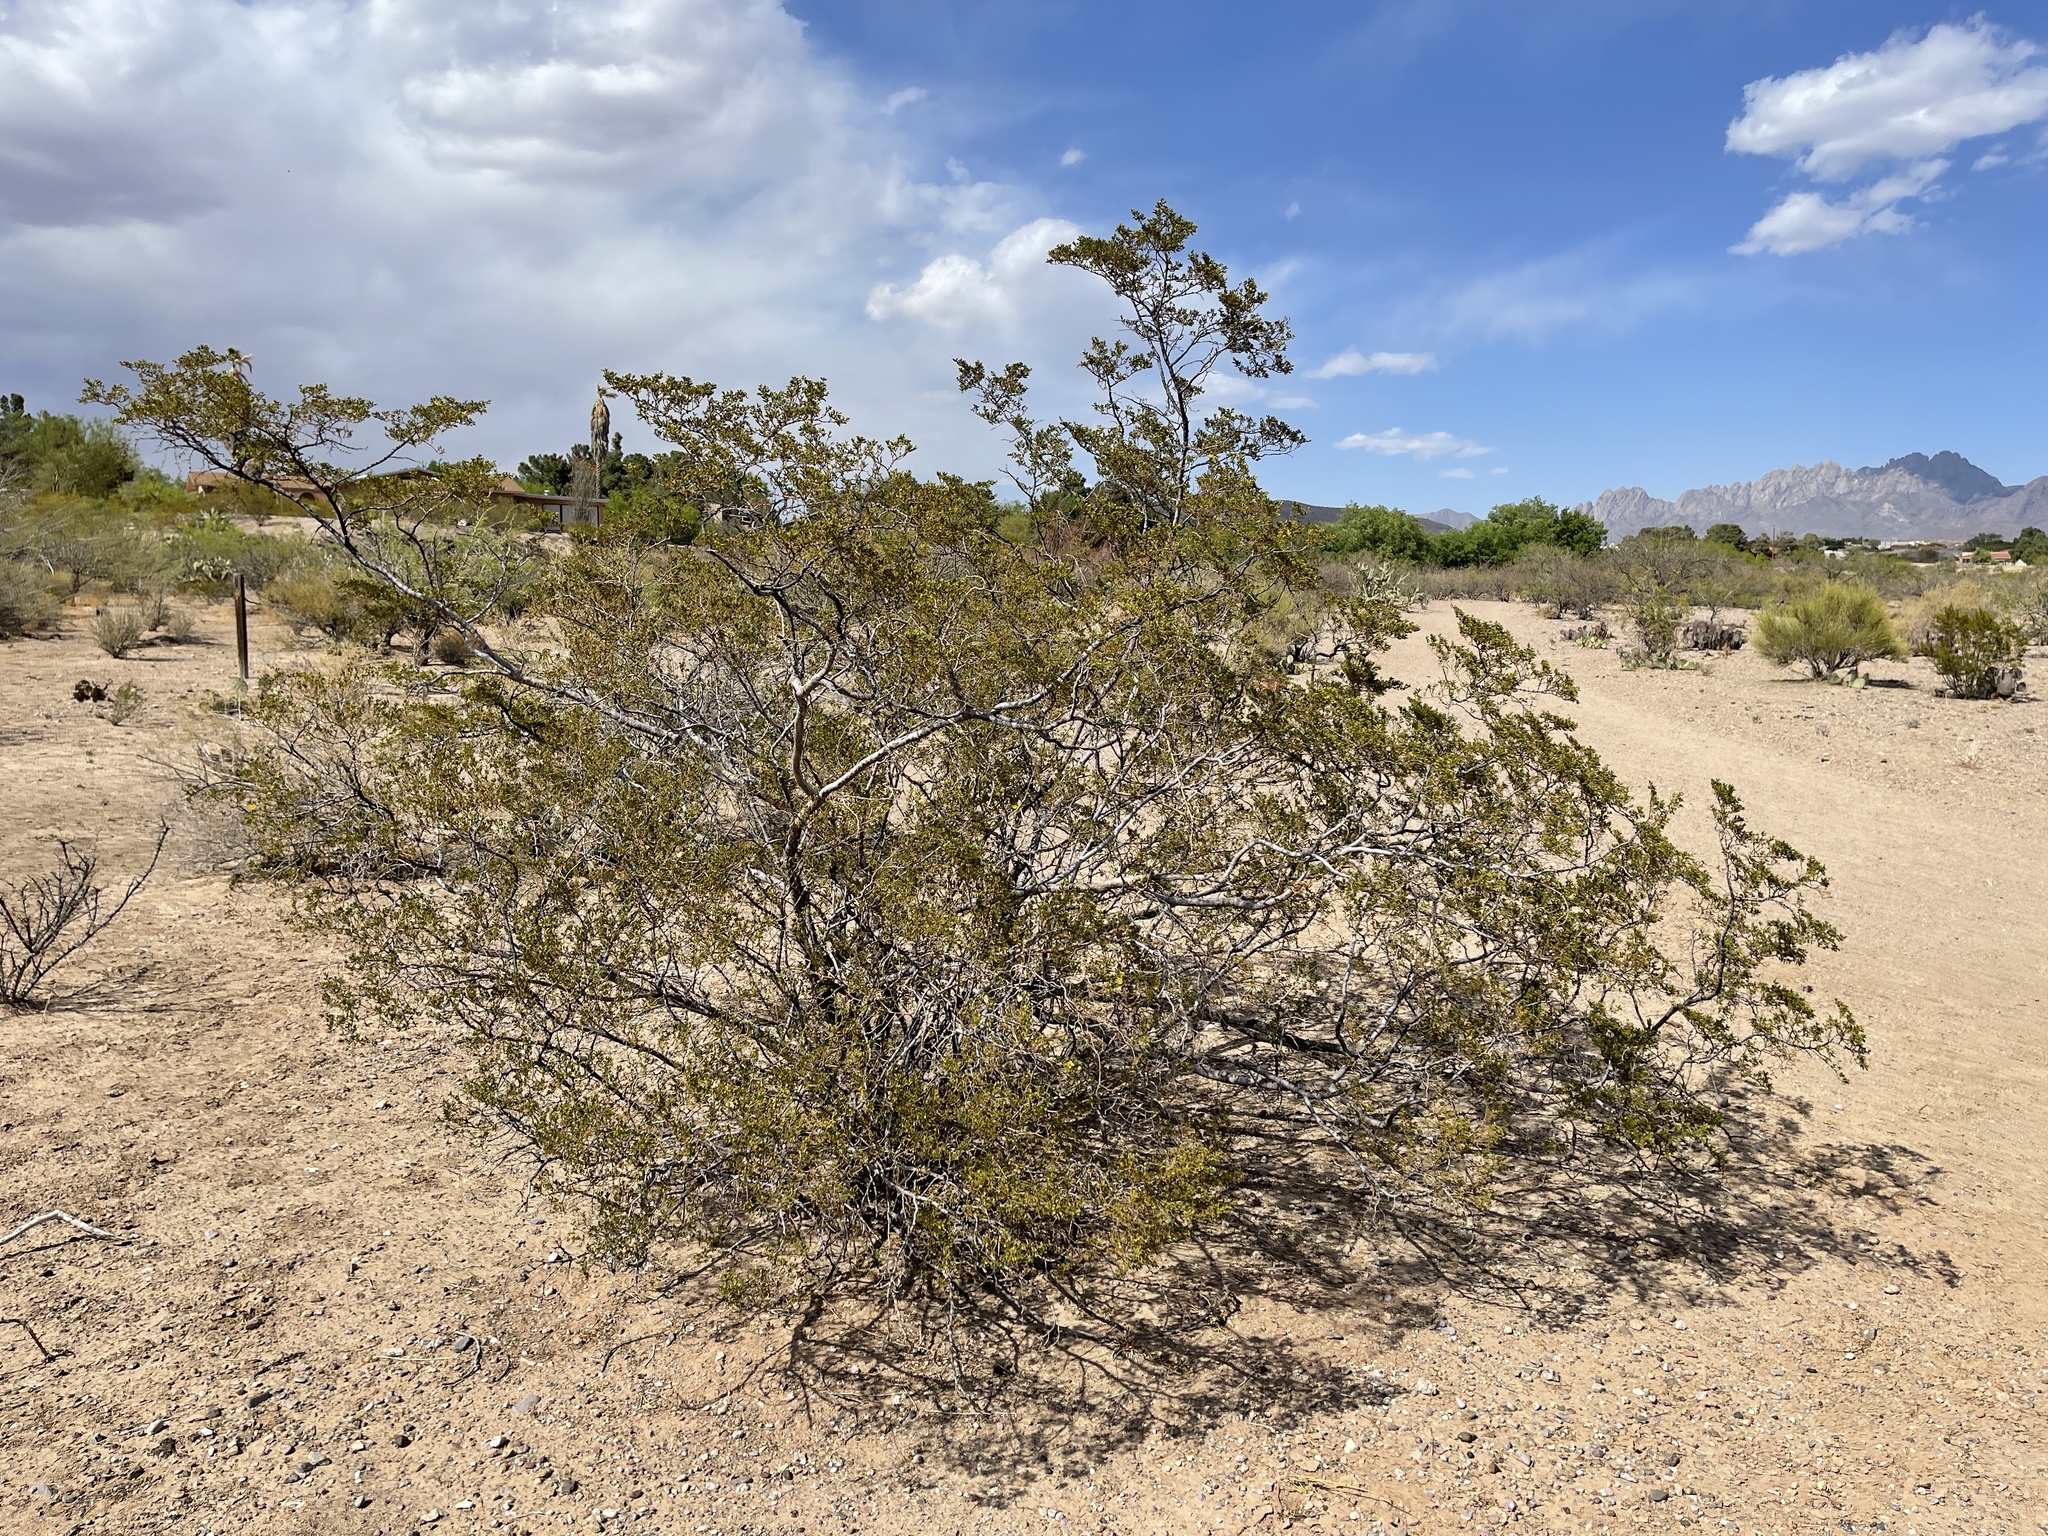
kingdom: Plantae
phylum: Tracheophyta
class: Magnoliopsida
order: Zygophyllales
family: Zygophyllaceae
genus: Larrea
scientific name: Larrea tridentata
